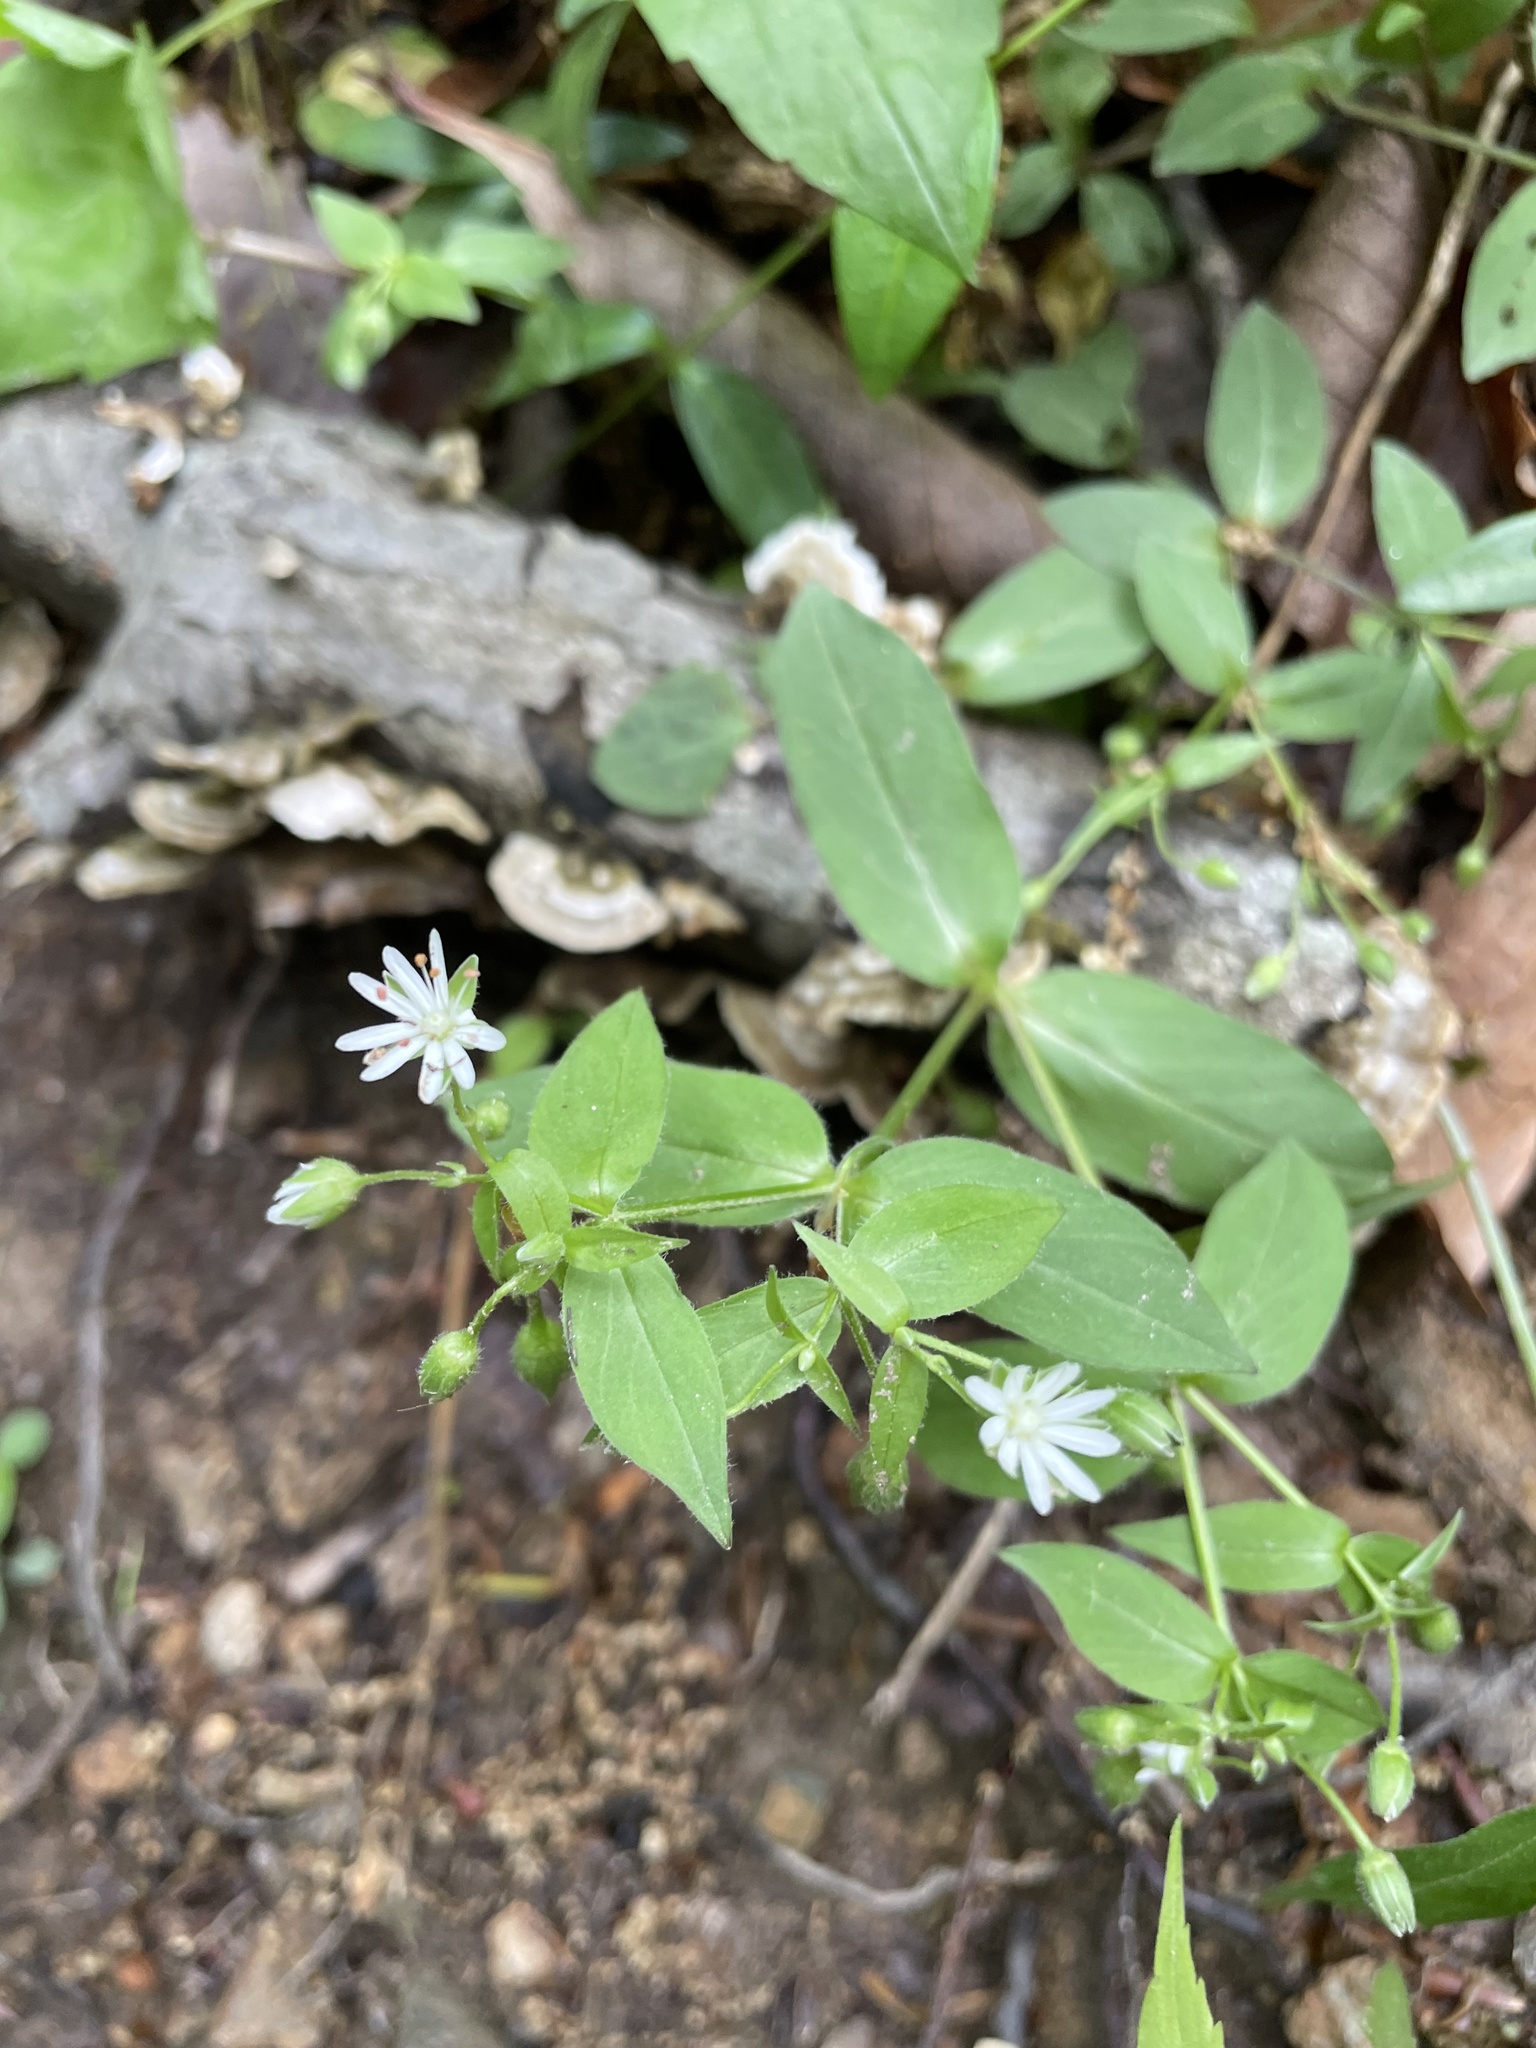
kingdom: Plantae
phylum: Tracheophyta
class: Magnoliopsida
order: Caryophyllales
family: Caryophyllaceae
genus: Stellaria
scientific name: Stellaria pubera
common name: Star chickweed
